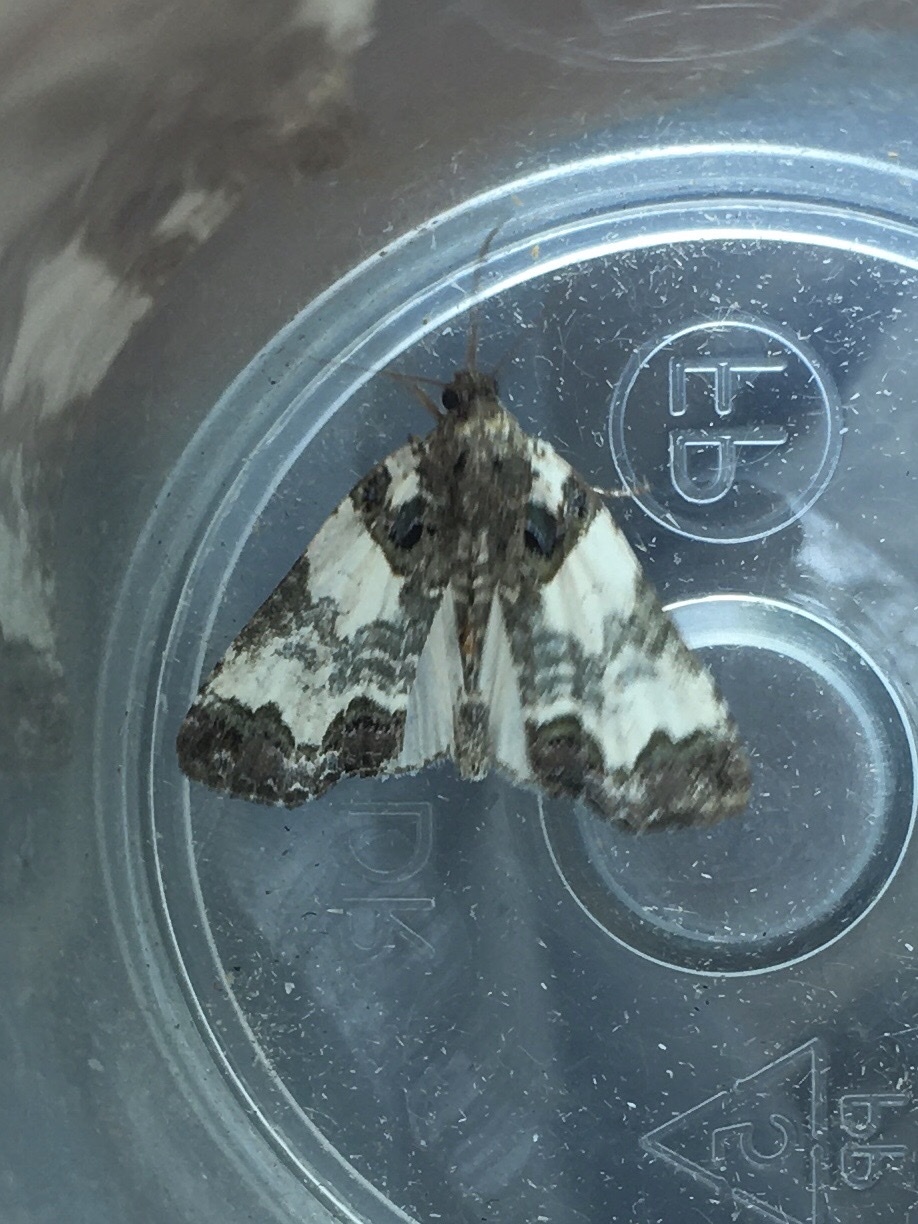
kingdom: Animalia
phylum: Arthropoda
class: Insecta
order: Lepidoptera
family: Noctuidae
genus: Cerma
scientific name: Cerma cerintha
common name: Tufted bird-dropping moth
